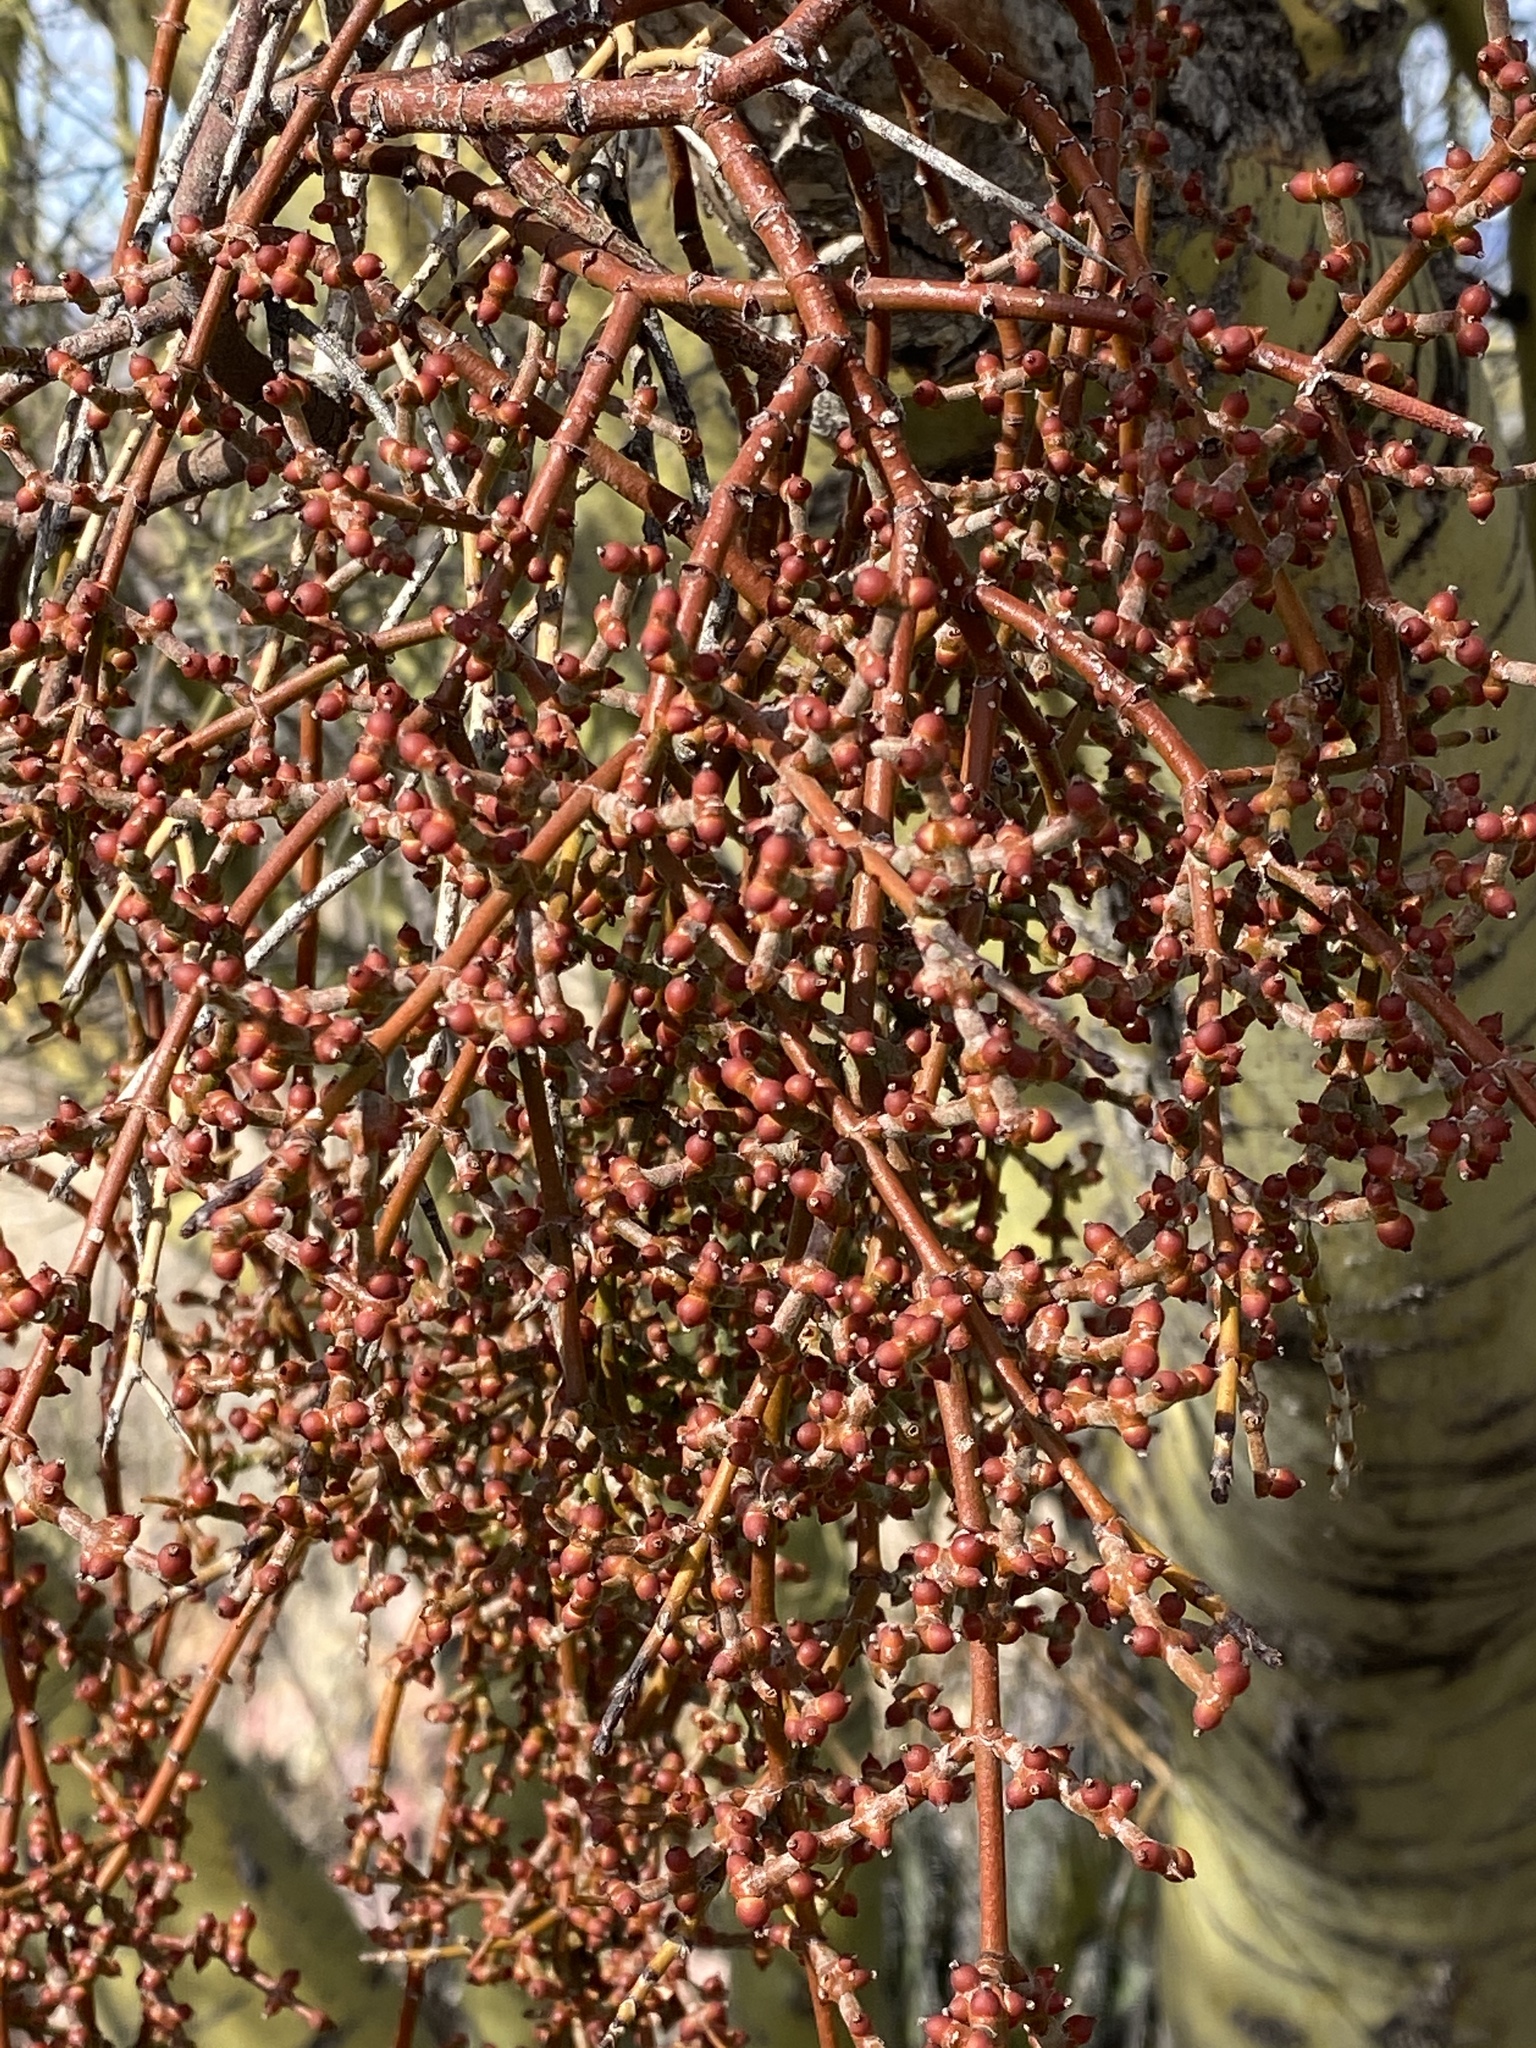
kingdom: Plantae
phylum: Tracheophyta
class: Magnoliopsida
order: Santalales
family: Viscaceae
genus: Phoradendron
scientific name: Phoradendron californicum
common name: Acacia mistletoe
